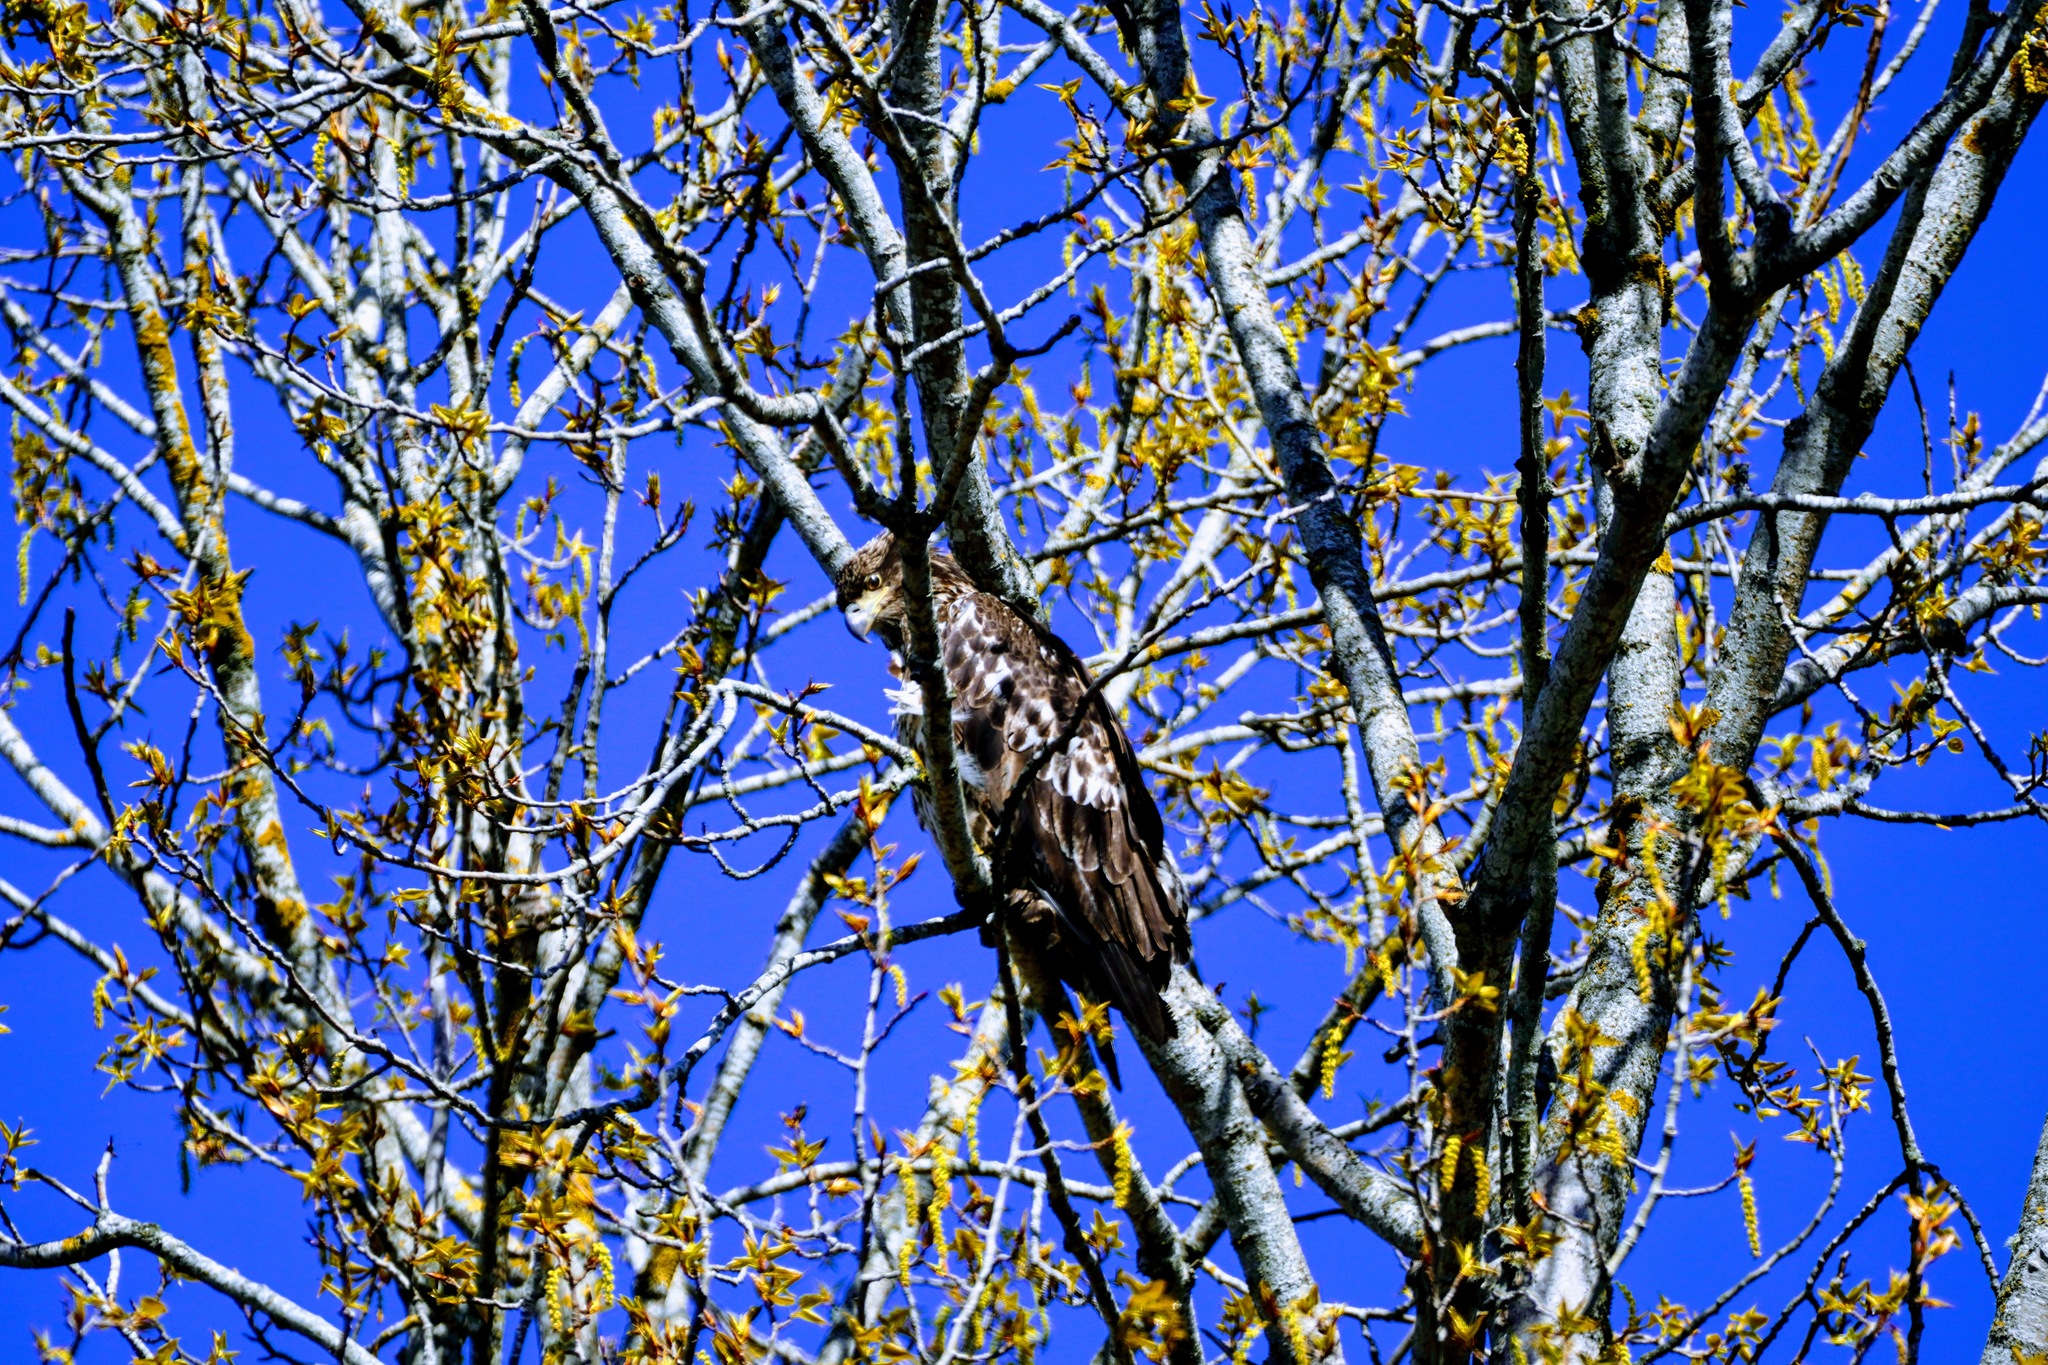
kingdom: Animalia
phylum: Chordata
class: Aves
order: Accipitriformes
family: Accipitridae
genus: Haliaeetus
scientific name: Haliaeetus leucocephalus
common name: Bald eagle
